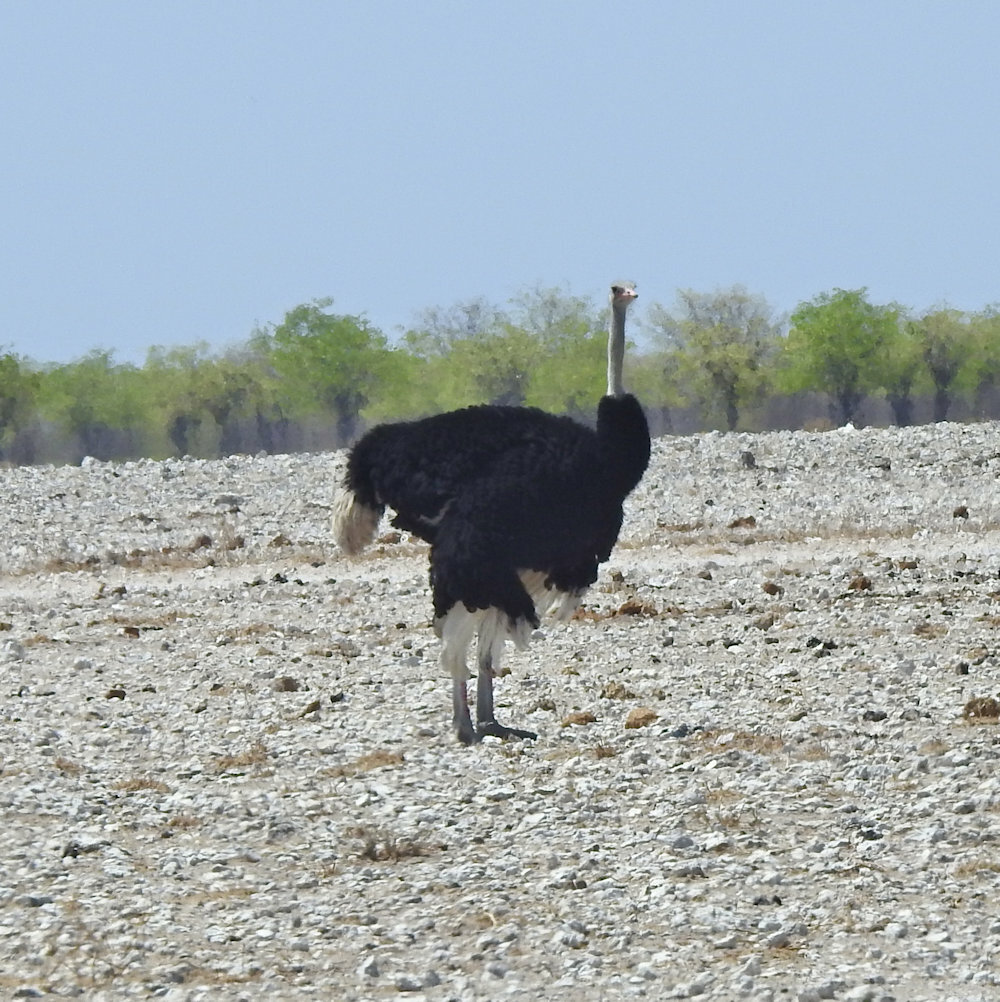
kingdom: Animalia
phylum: Chordata
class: Aves
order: Struthioniformes
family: Struthionidae
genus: Struthio
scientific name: Struthio camelus
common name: Common ostrich
